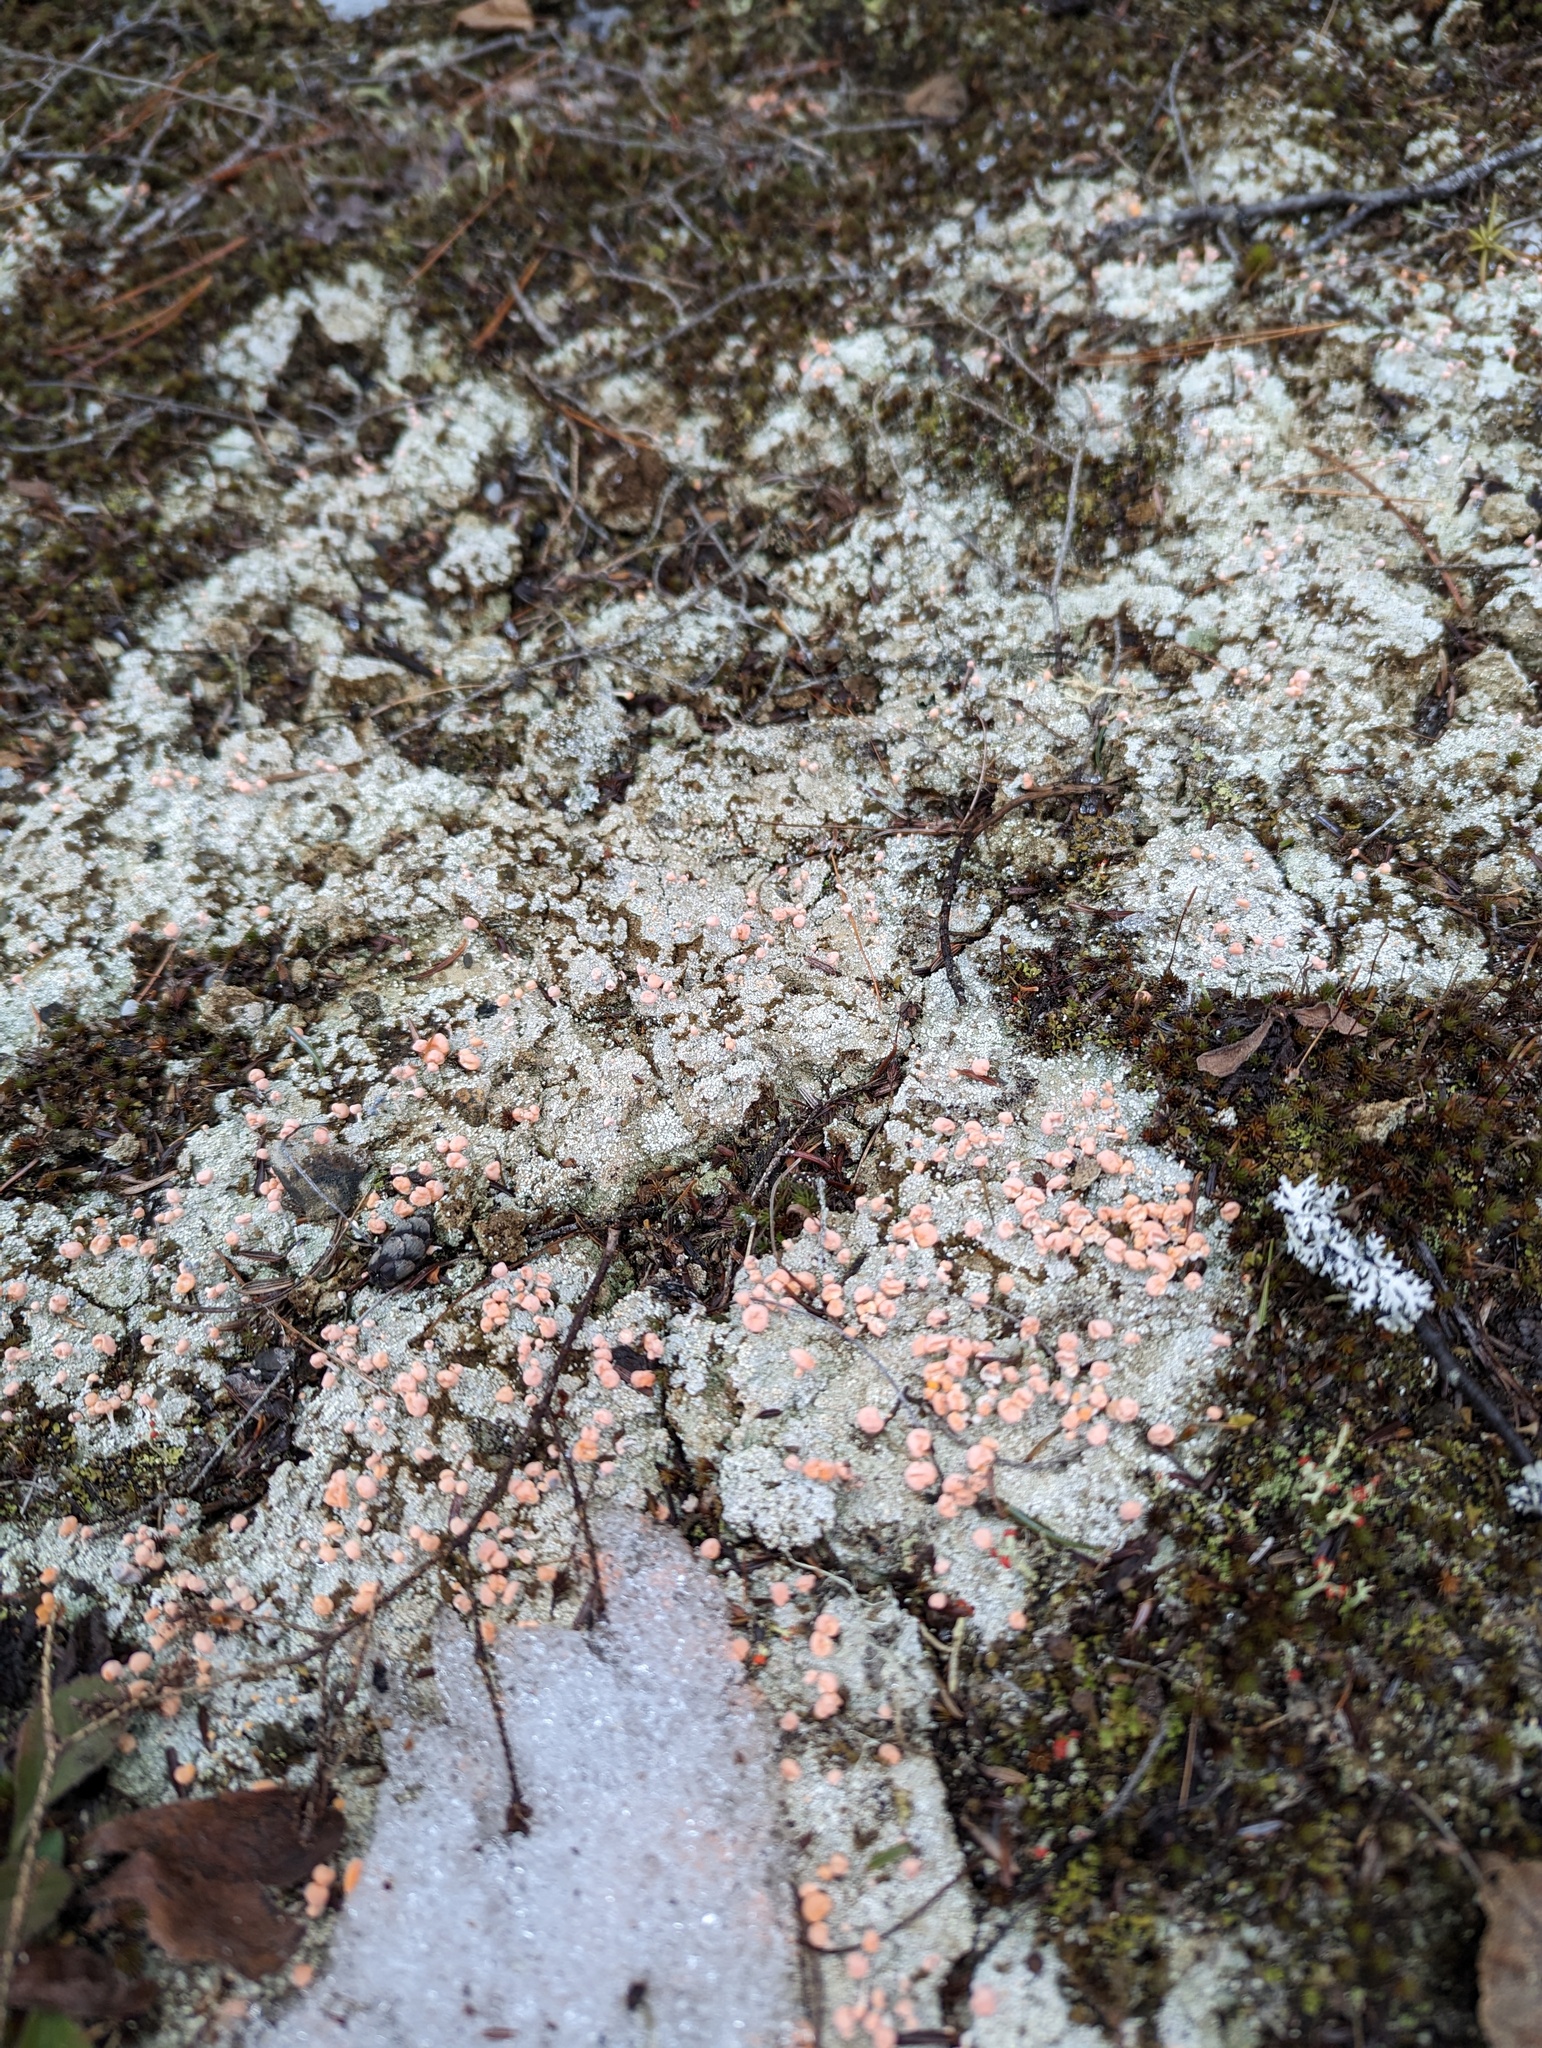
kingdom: Fungi
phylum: Ascomycota
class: Lecanoromycetes
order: Pertusariales
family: Icmadophilaceae
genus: Dibaeis
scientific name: Dibaeis baeomyces
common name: Pink earth lichen
